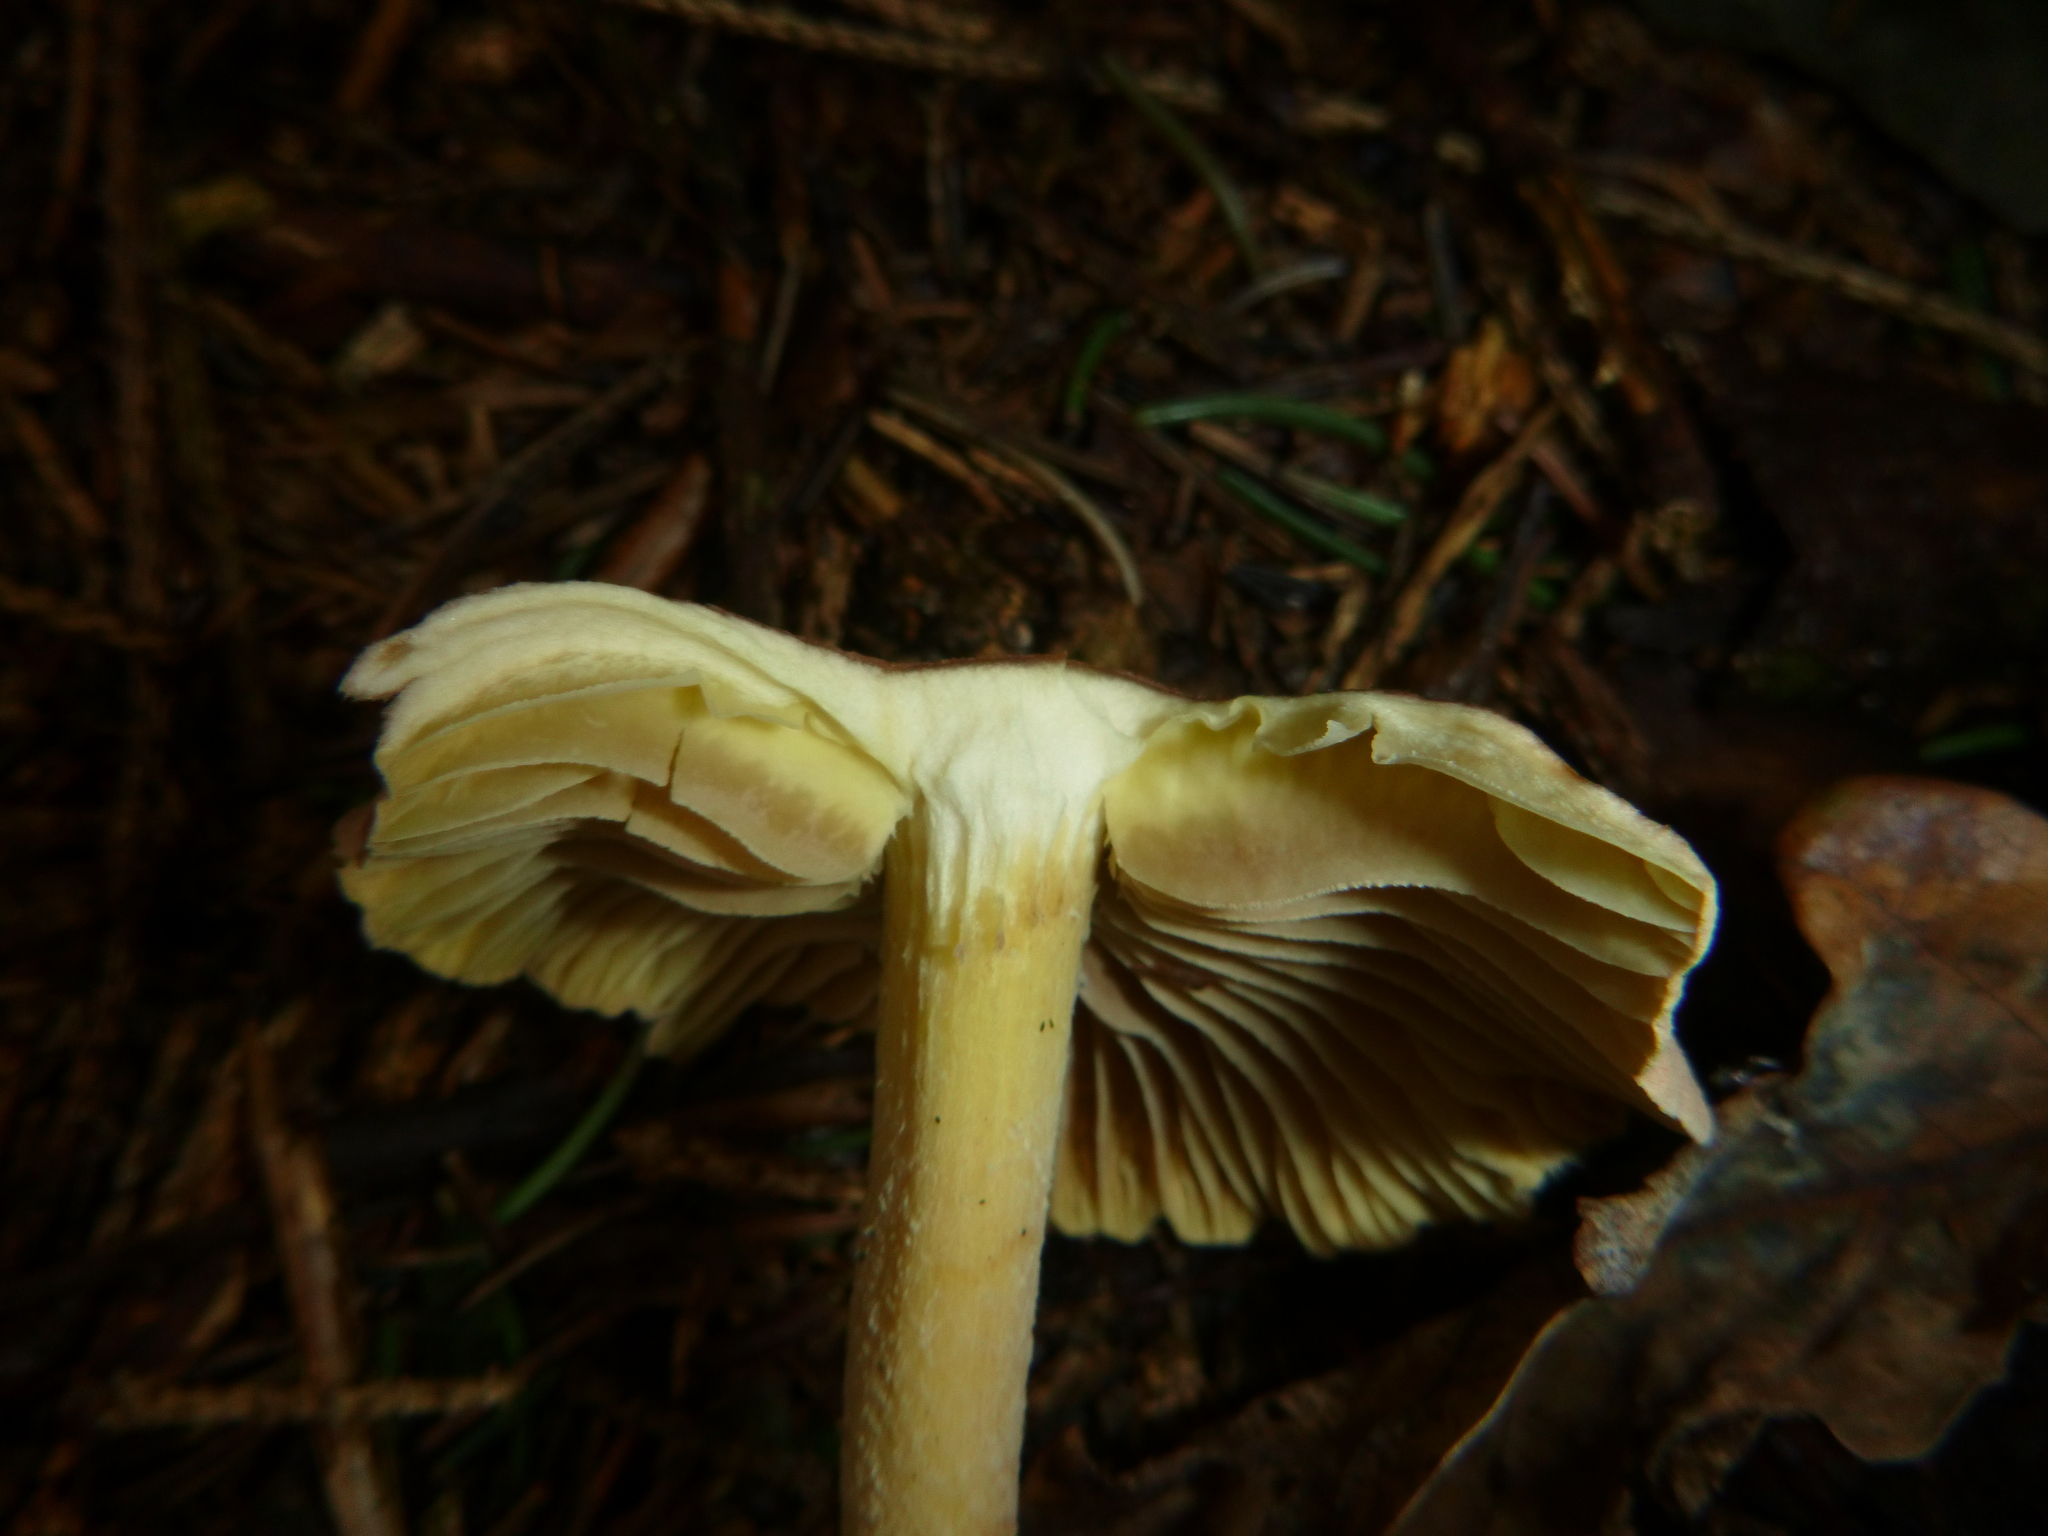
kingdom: Fungi
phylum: Basidiomycota
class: Agaricomycetes
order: Agaricales
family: Omphalotaceae
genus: Collybiopsis
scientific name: Collybiopsis peronata
